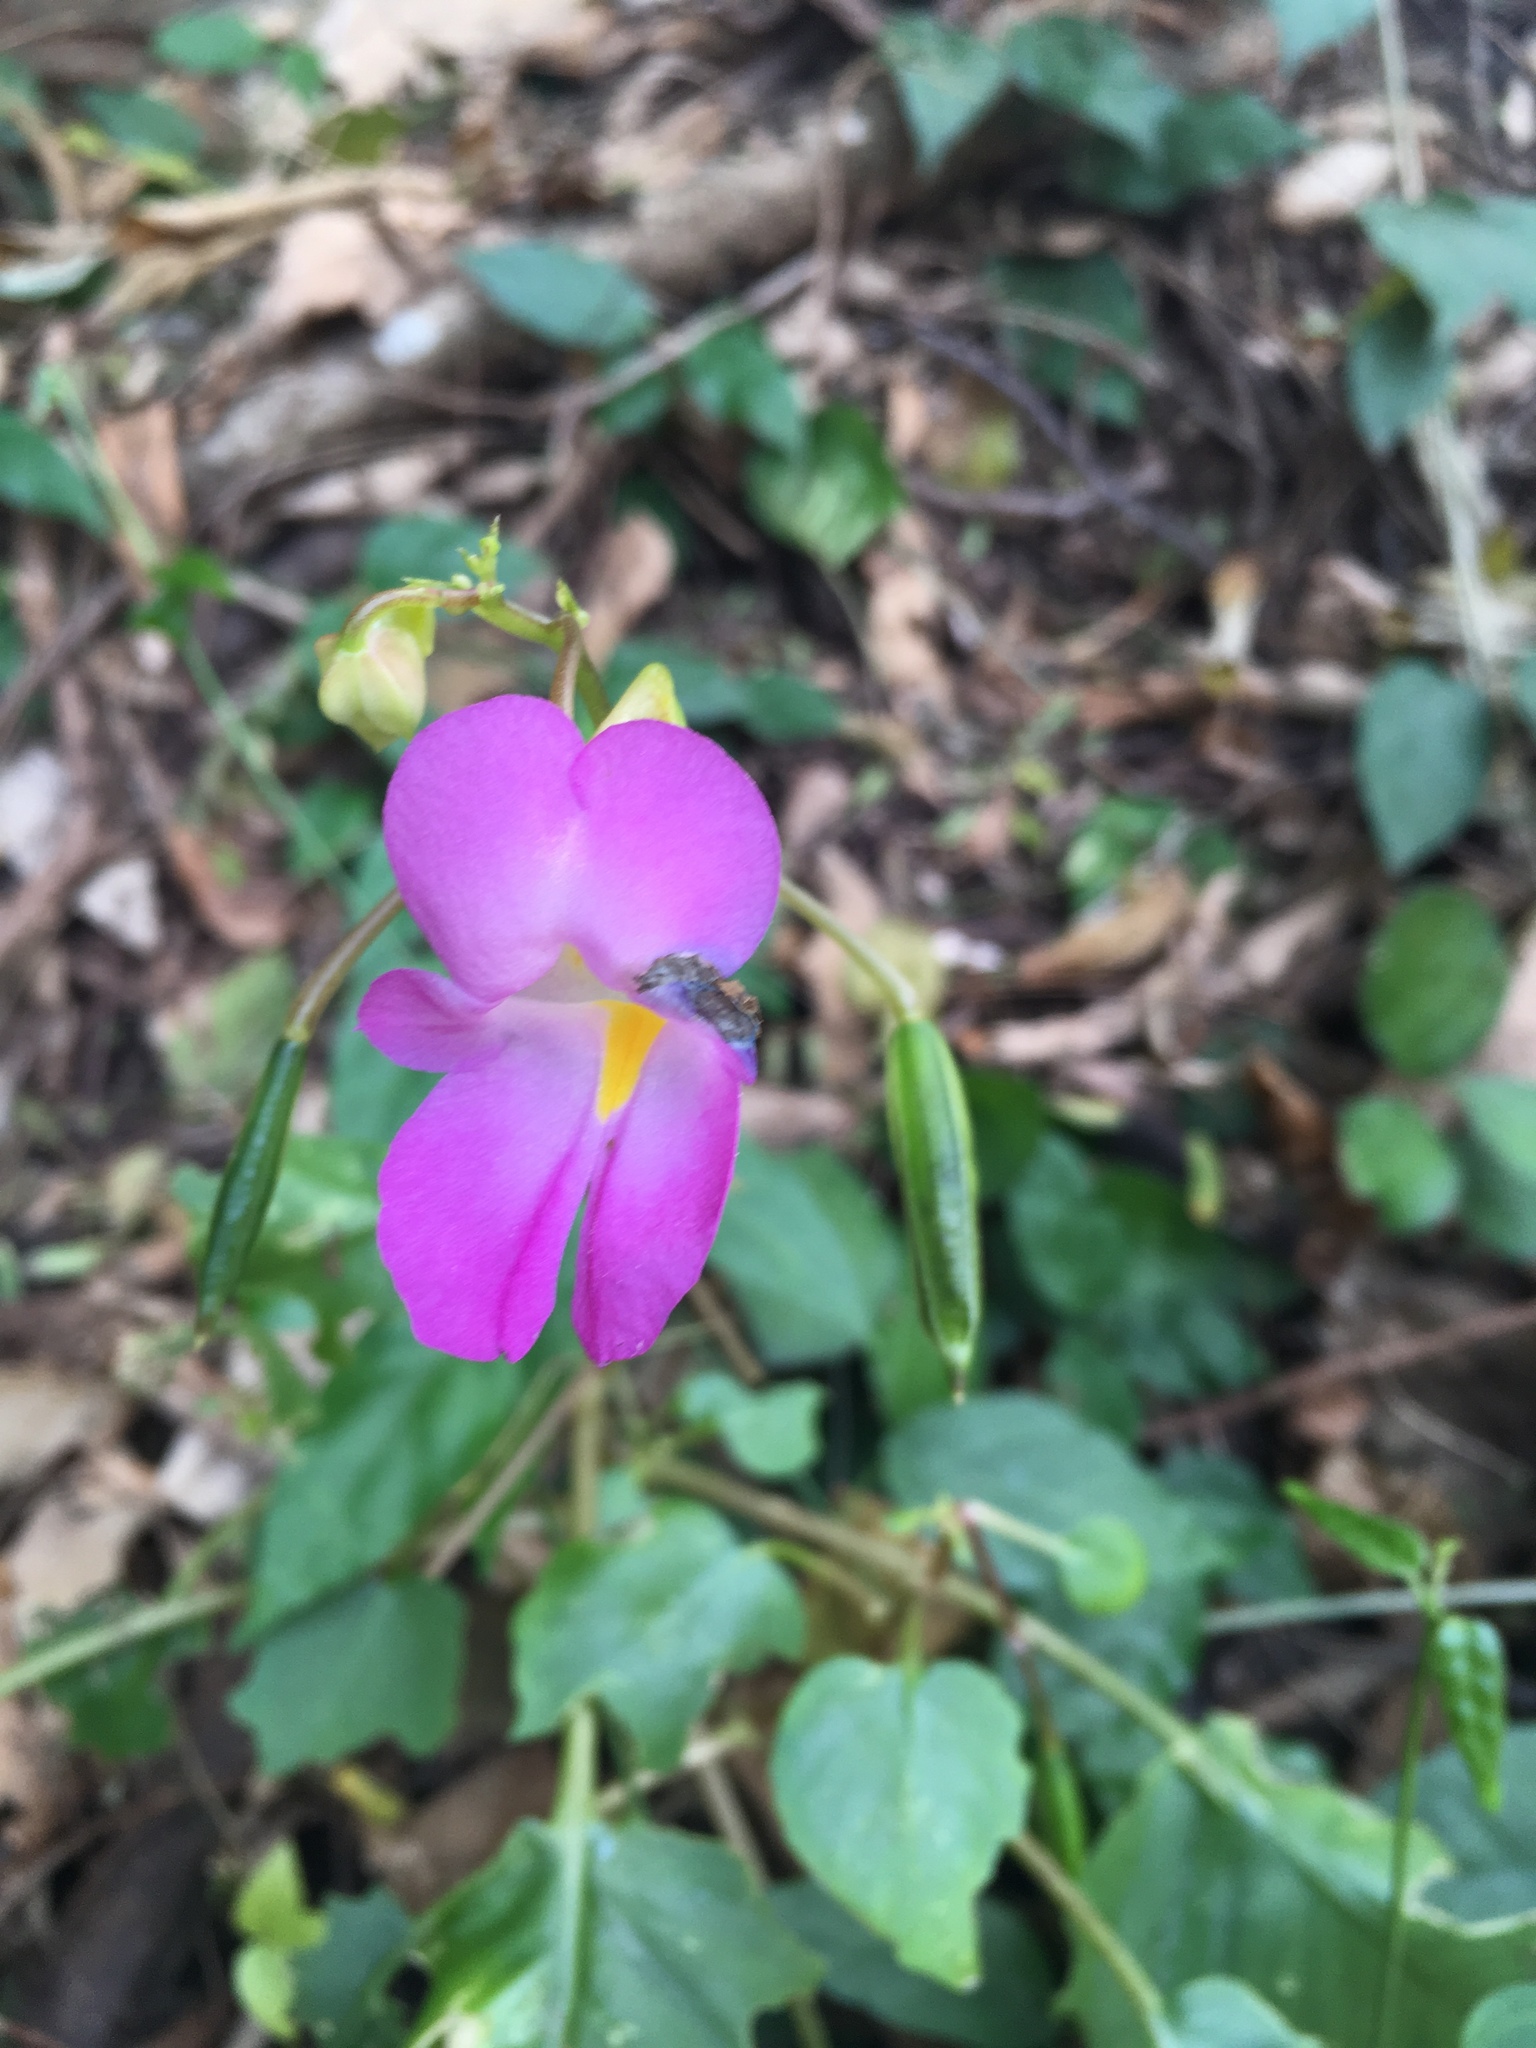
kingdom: Plantae
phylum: Tracheophyta
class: Magnoliopsida
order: Ericales
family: Balsaminaceae
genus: Impatiens
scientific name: Impatiens putii
